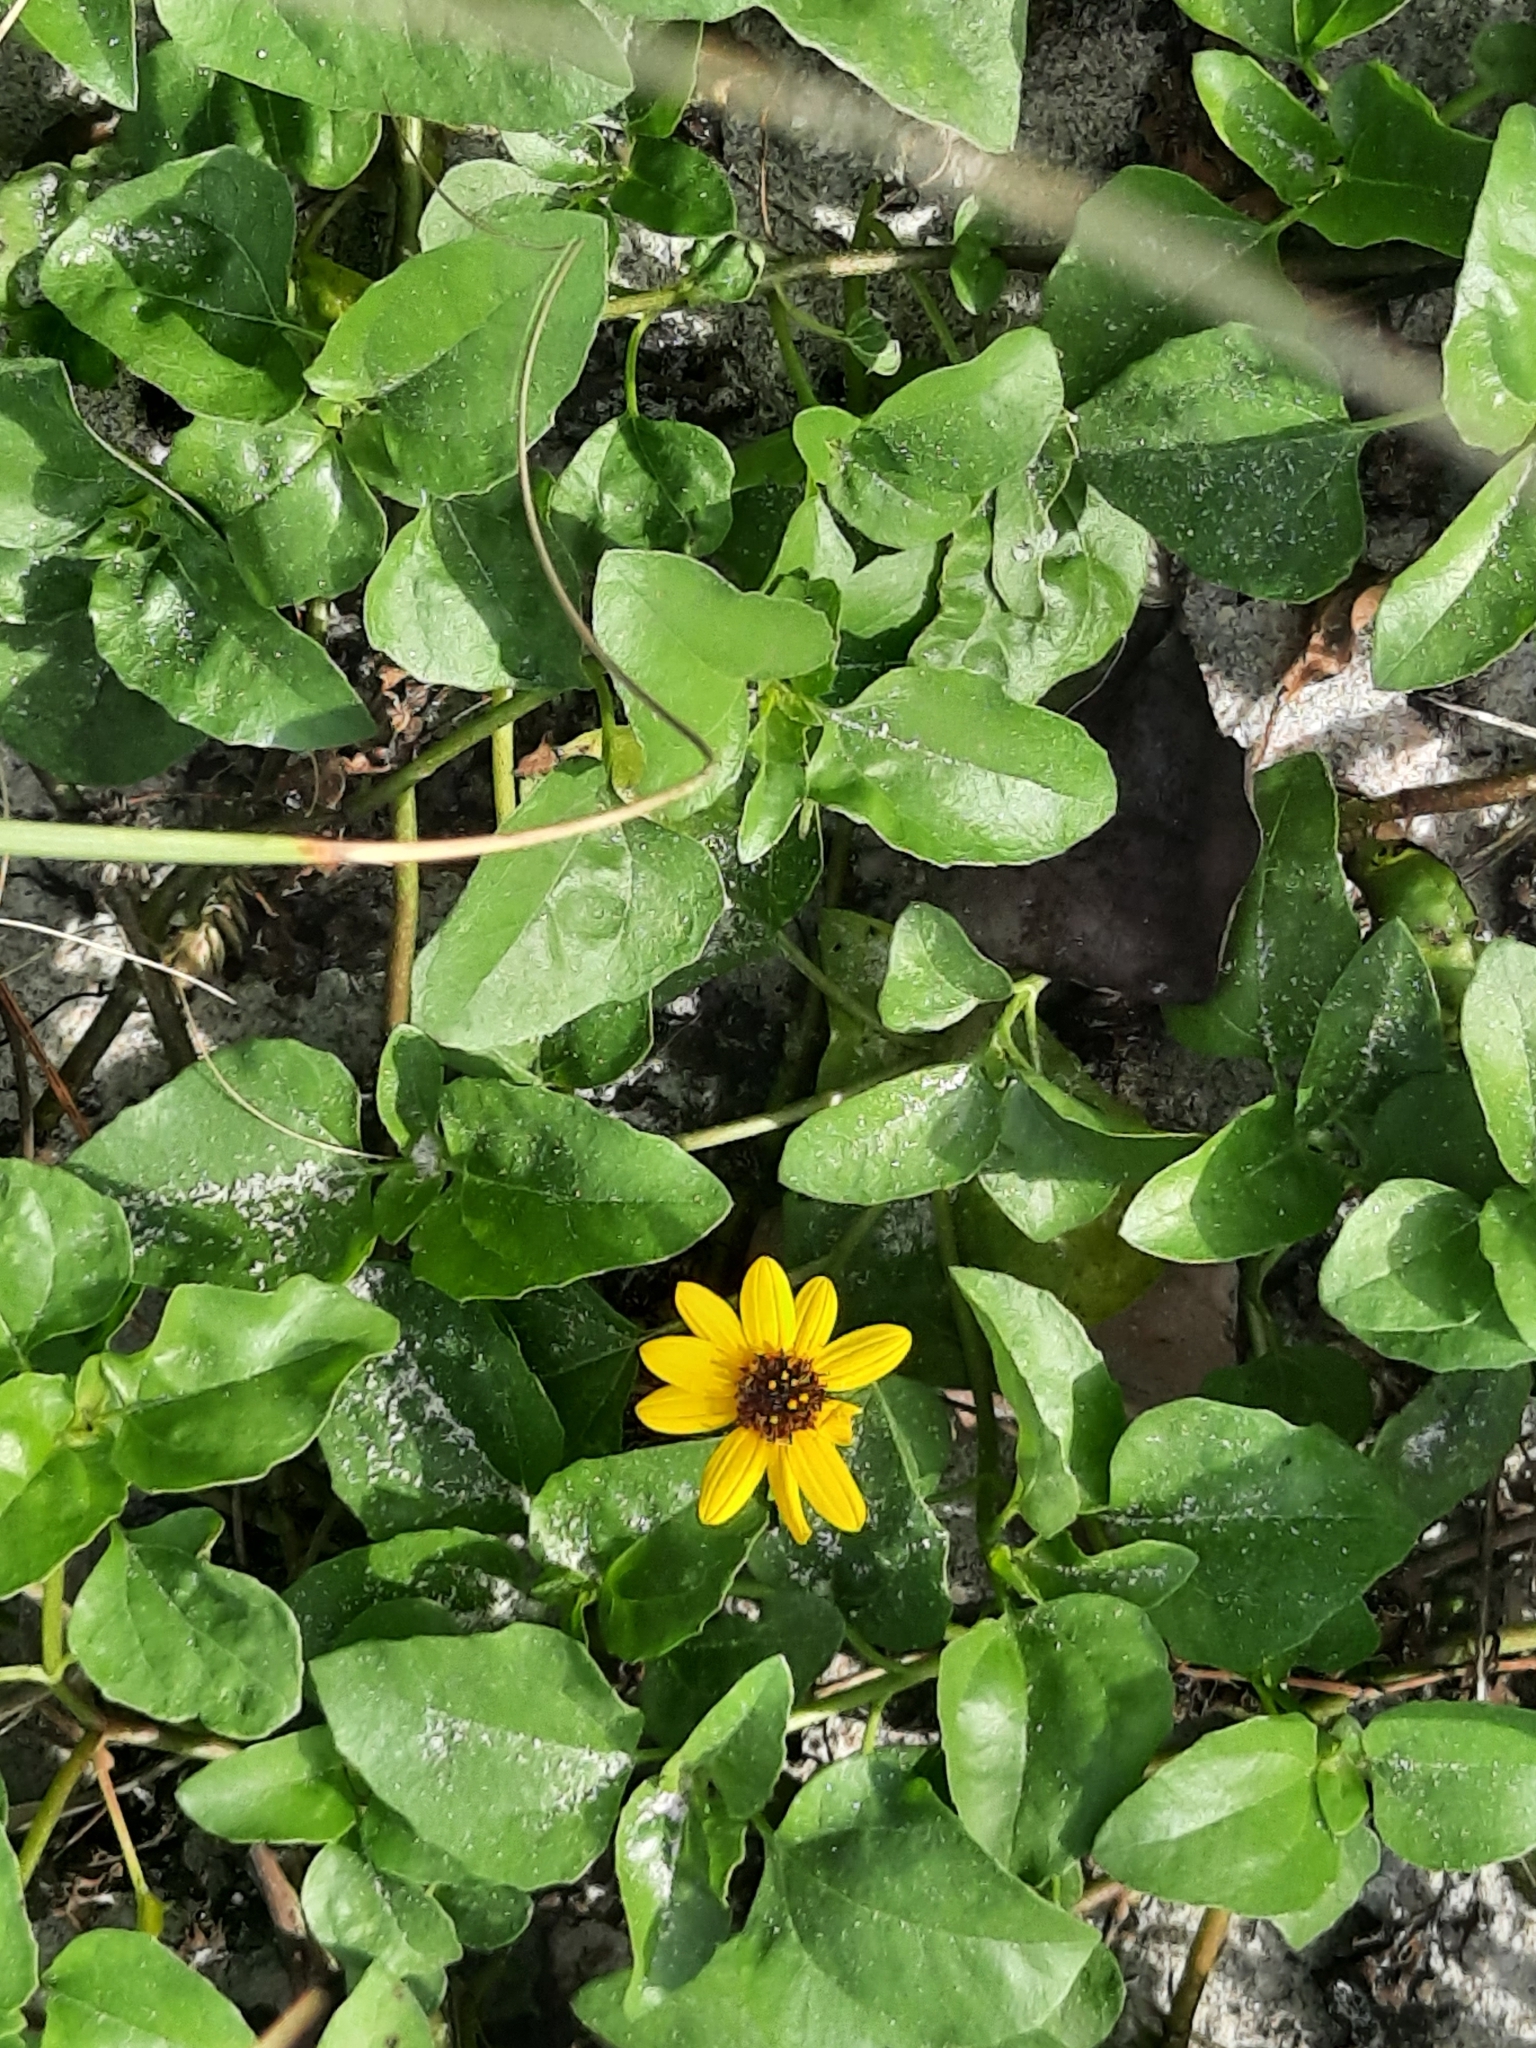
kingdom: Plantae
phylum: Tracheophyta
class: Magnoliopsida
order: Asterales
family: Asteraceae
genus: Helianthus
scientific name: Helianthus debilis
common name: Weak sunflower
